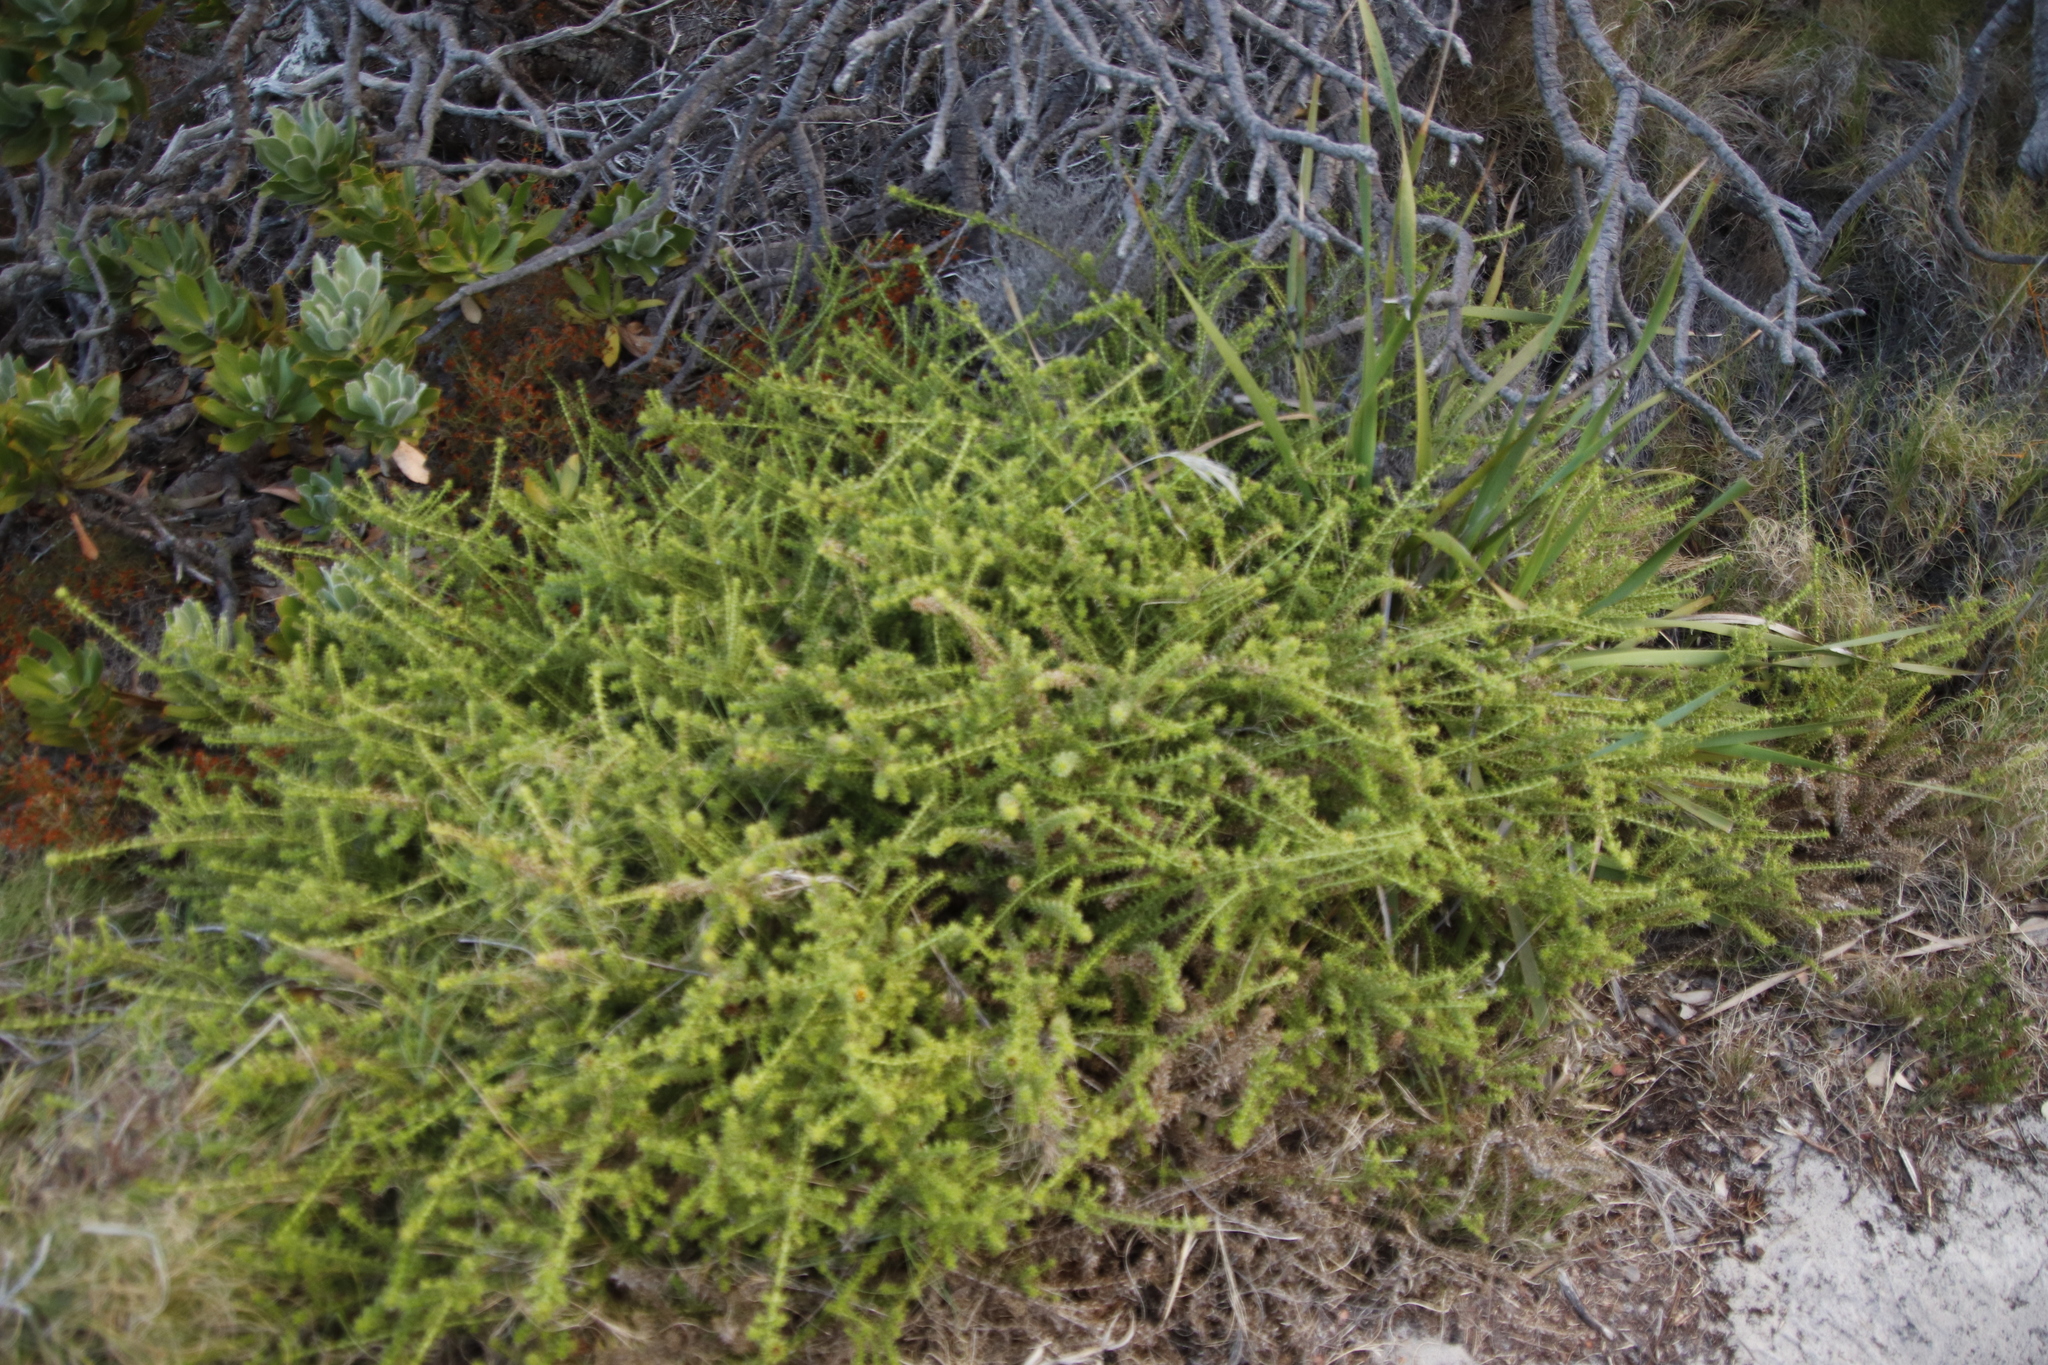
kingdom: Plantae
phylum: Tracheophyta
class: Magnoliopsida
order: Asterales
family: Asteraceae
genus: Cullumia
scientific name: Cullumia setosa
